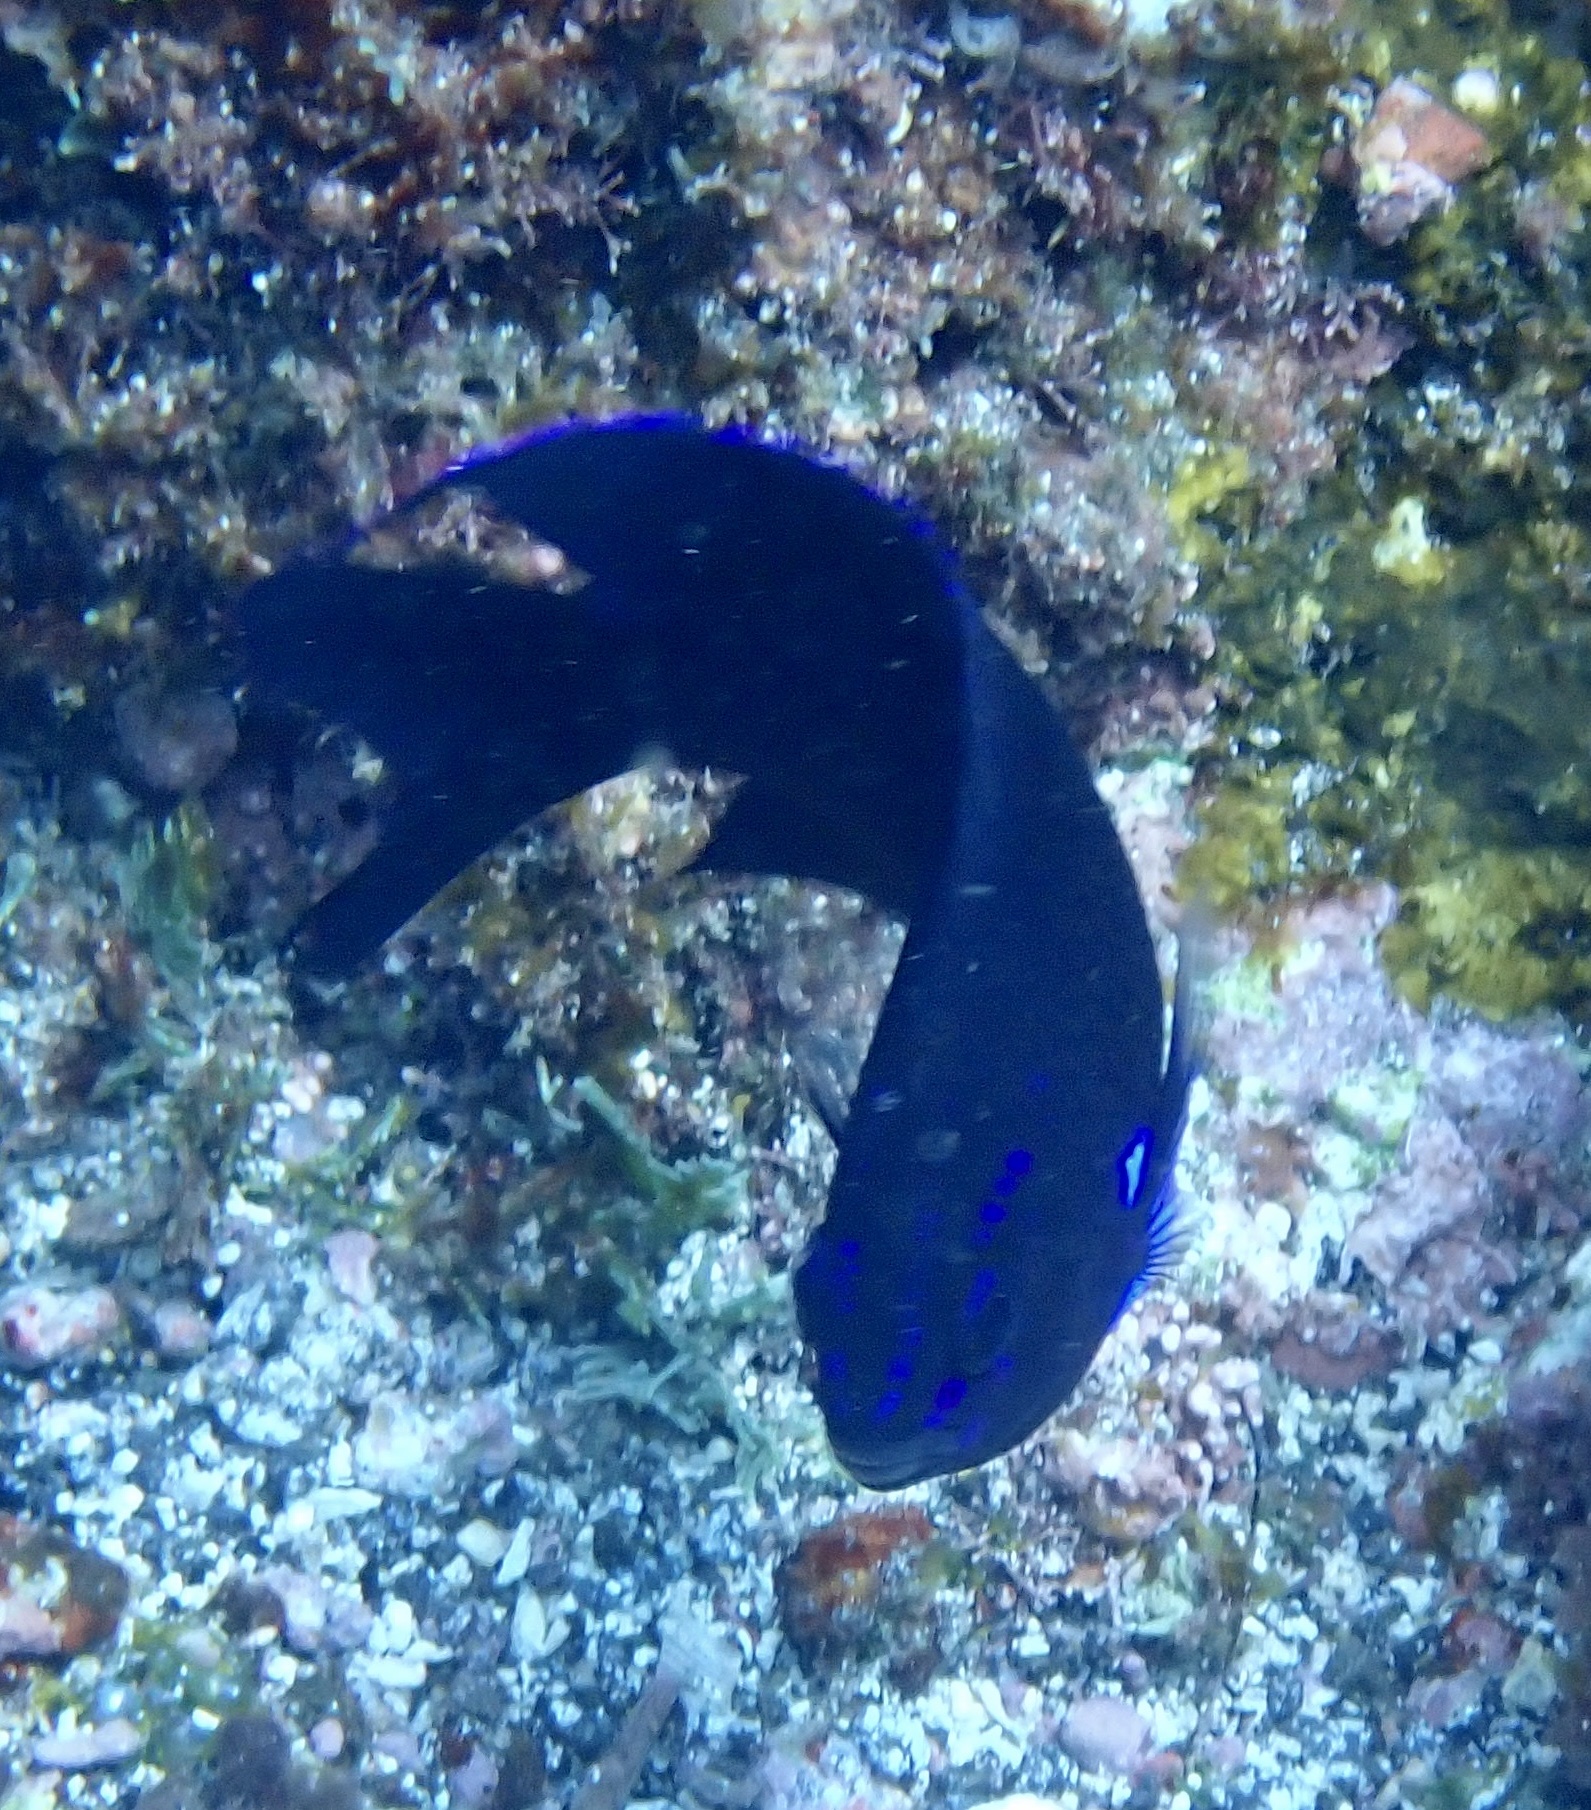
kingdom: Animalia
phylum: Chordata
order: Perciformes
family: Pomacentridae
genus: Similiparma
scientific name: Similiparma lurida
